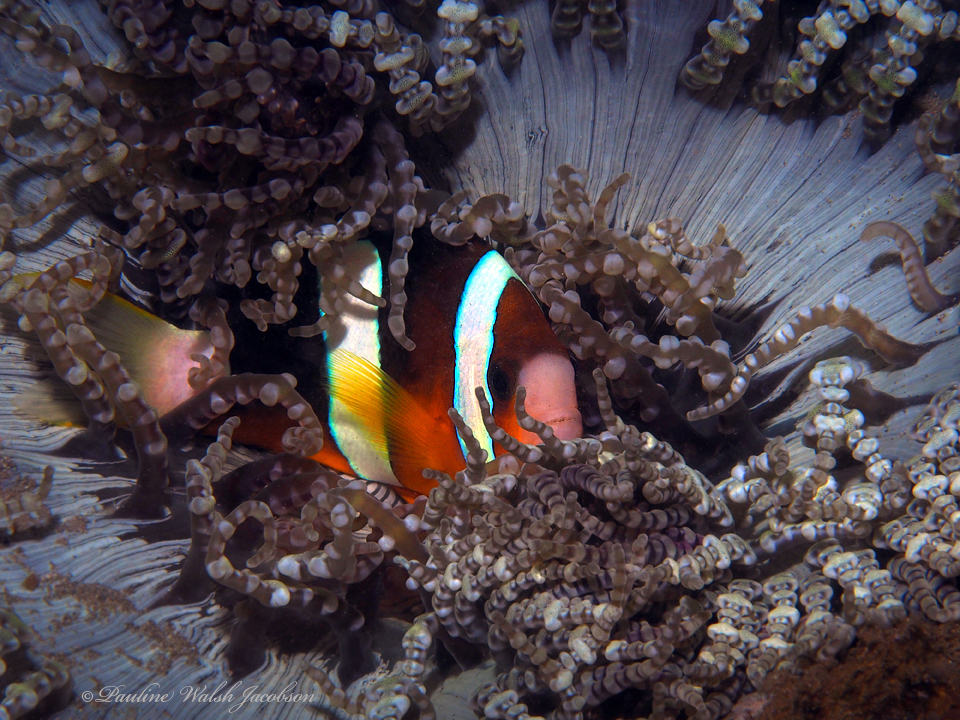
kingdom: Animalia
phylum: Chordata
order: Perciformes
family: Pomacentridae
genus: Amphiprion
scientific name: Amphiprion clarkii
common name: Clark's anemonefish
